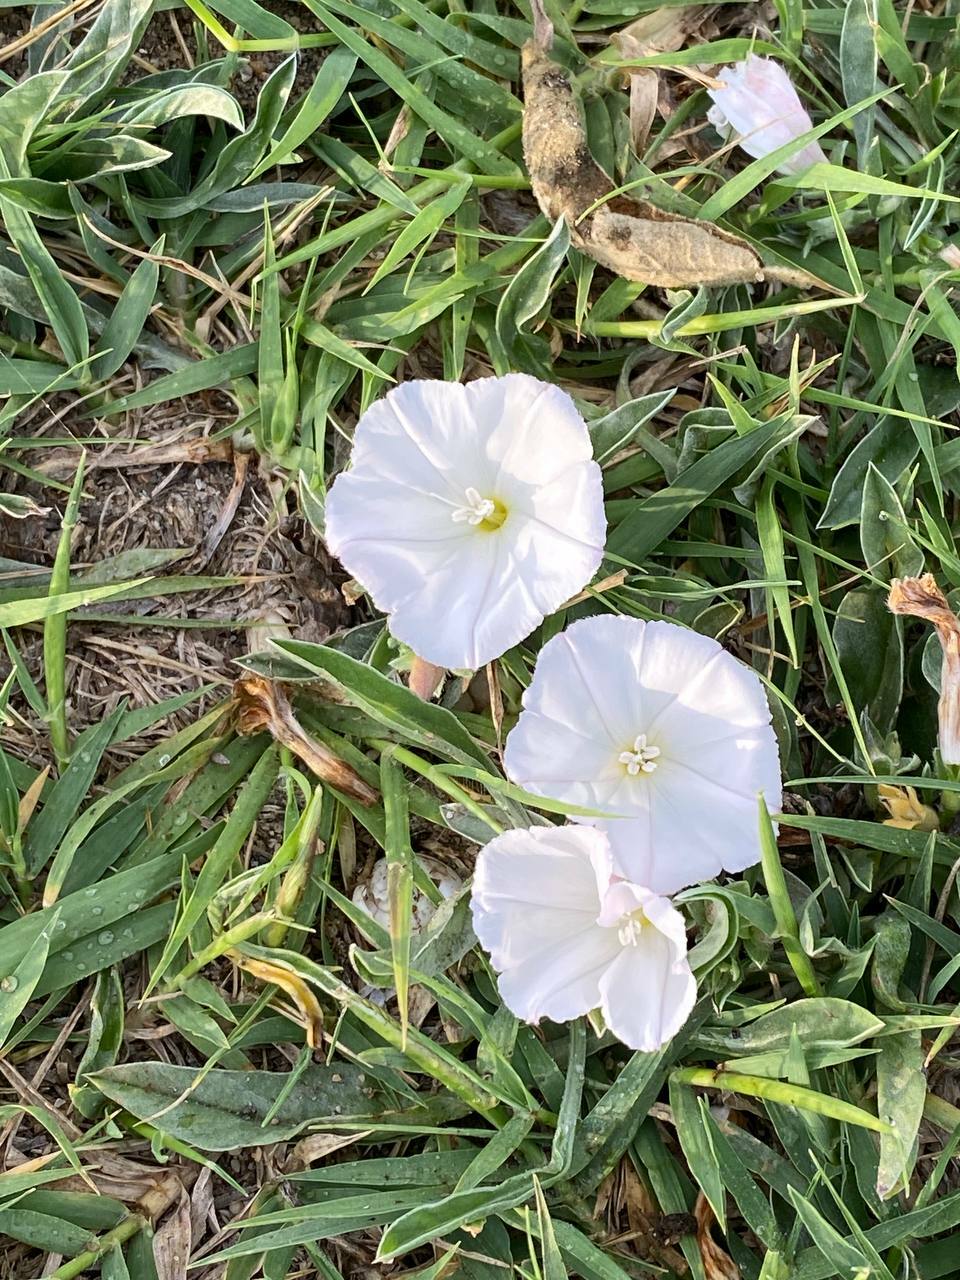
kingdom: Plantae
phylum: Tracheophyta
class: Magnoliopsida
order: Solanales
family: Convolvulaceae
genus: Convolvulus
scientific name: Convolvulus arvensis
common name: Field bindweed
